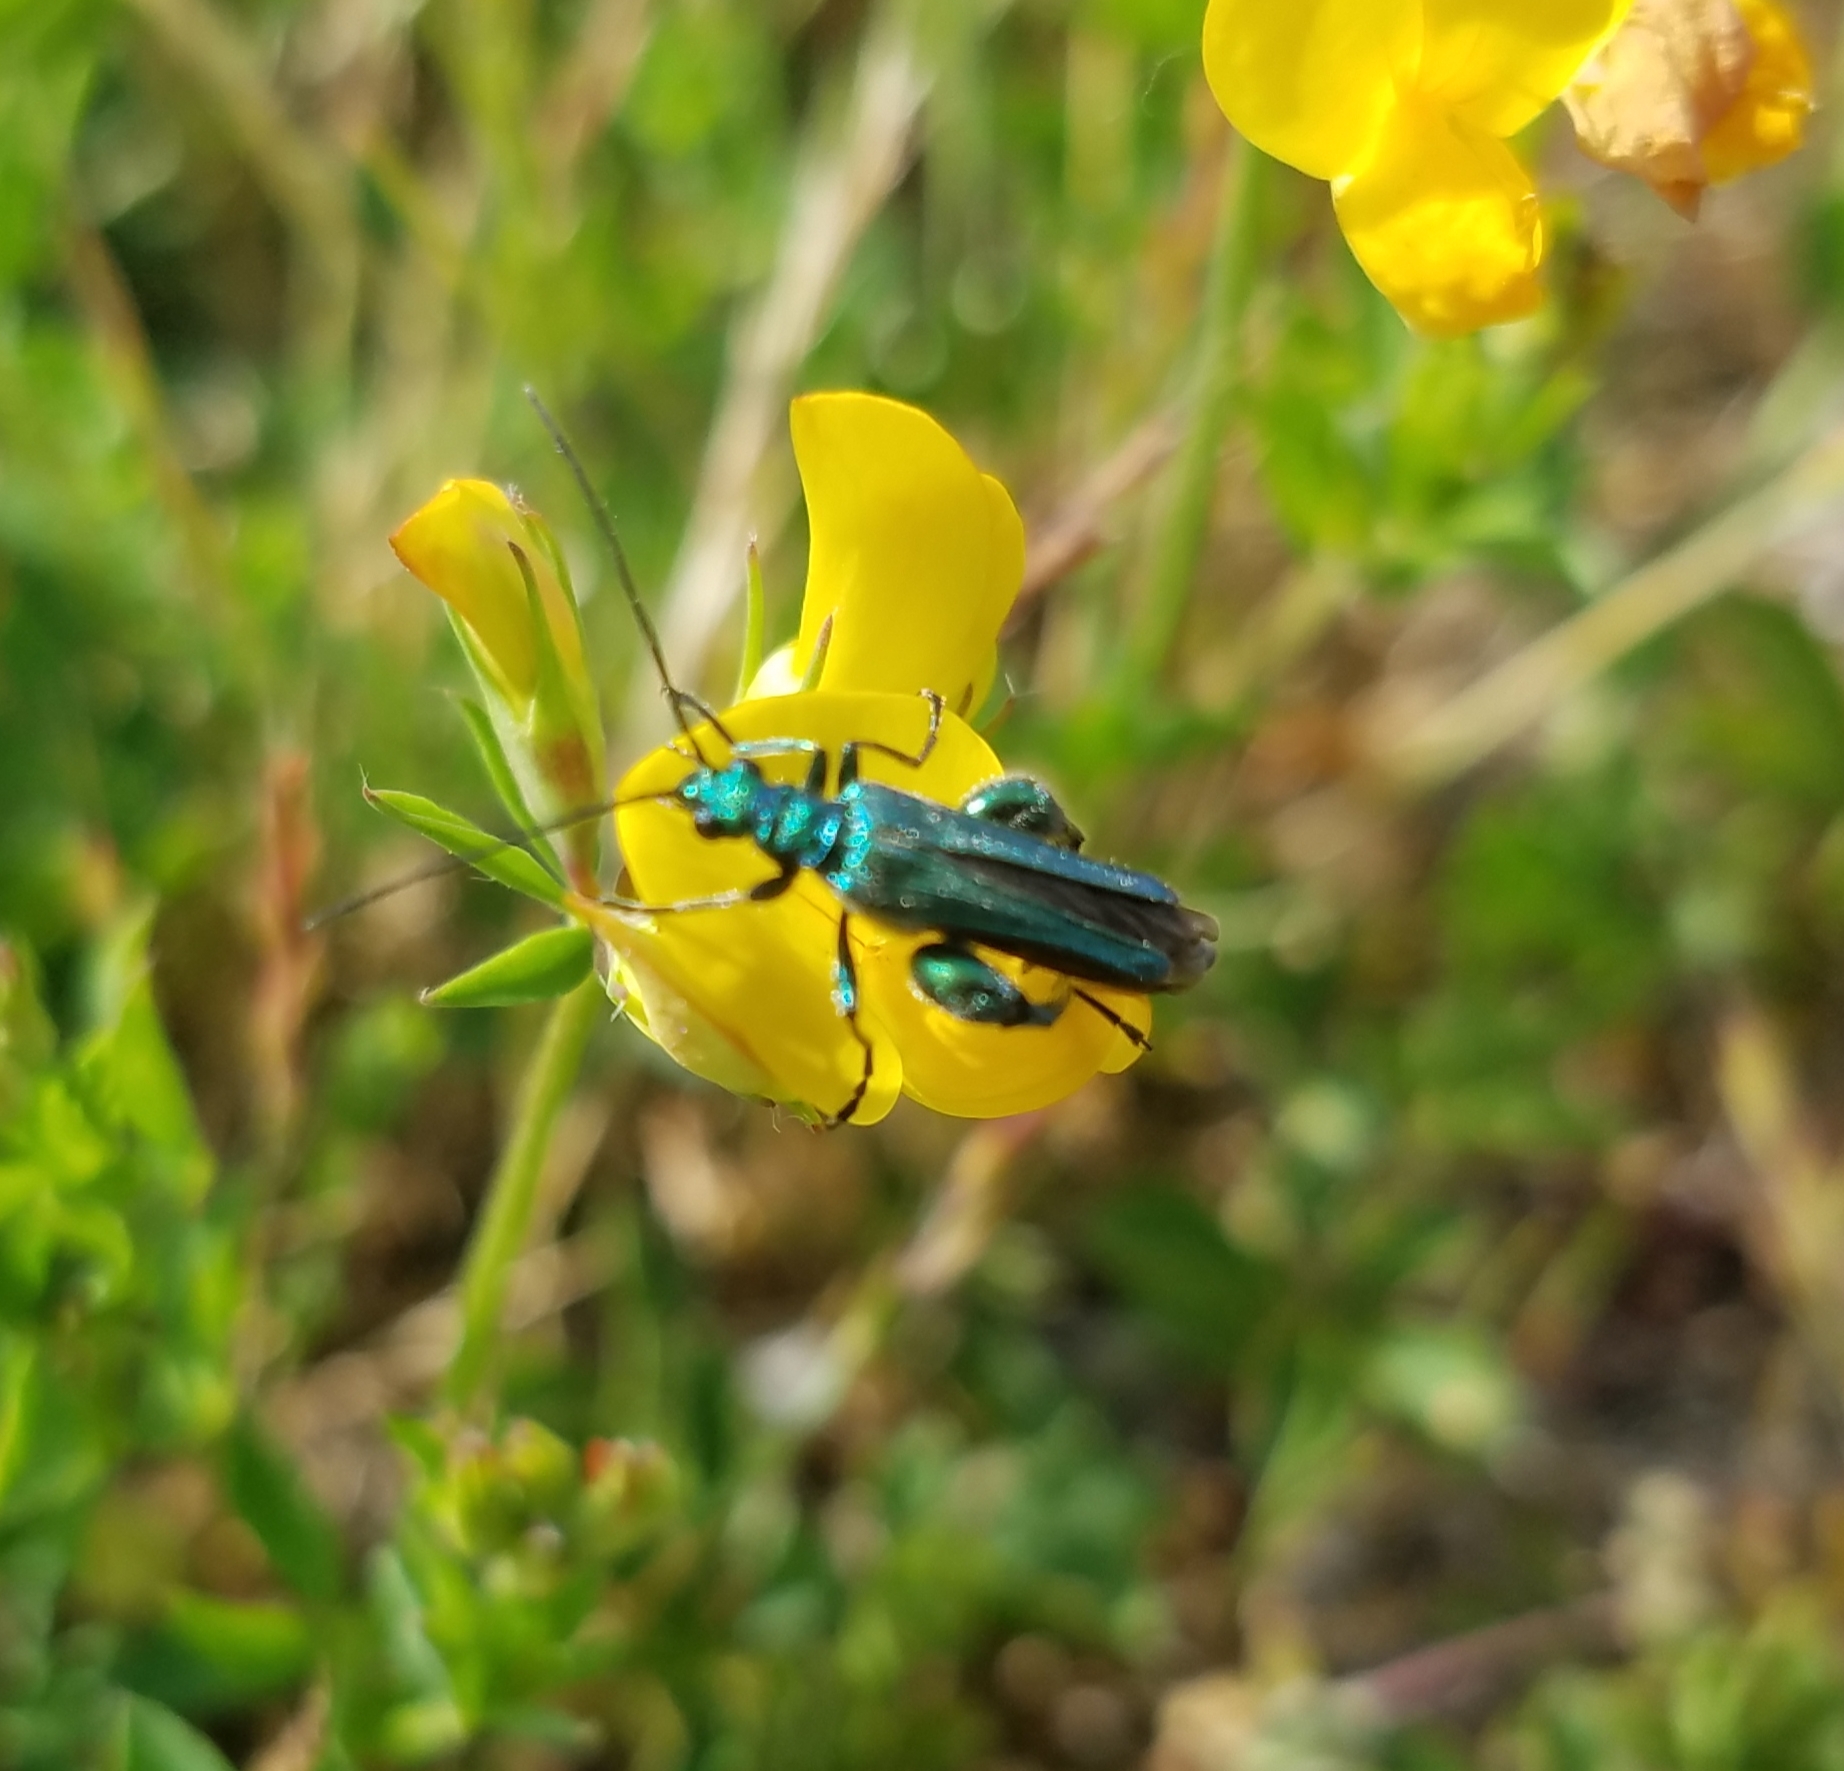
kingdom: Animalia
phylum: Arthropoda
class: Insecta
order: Coleoptera
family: Oedemeridae
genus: Oedemera
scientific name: Oedemera nobilis
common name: Swollen-thighed beetle
